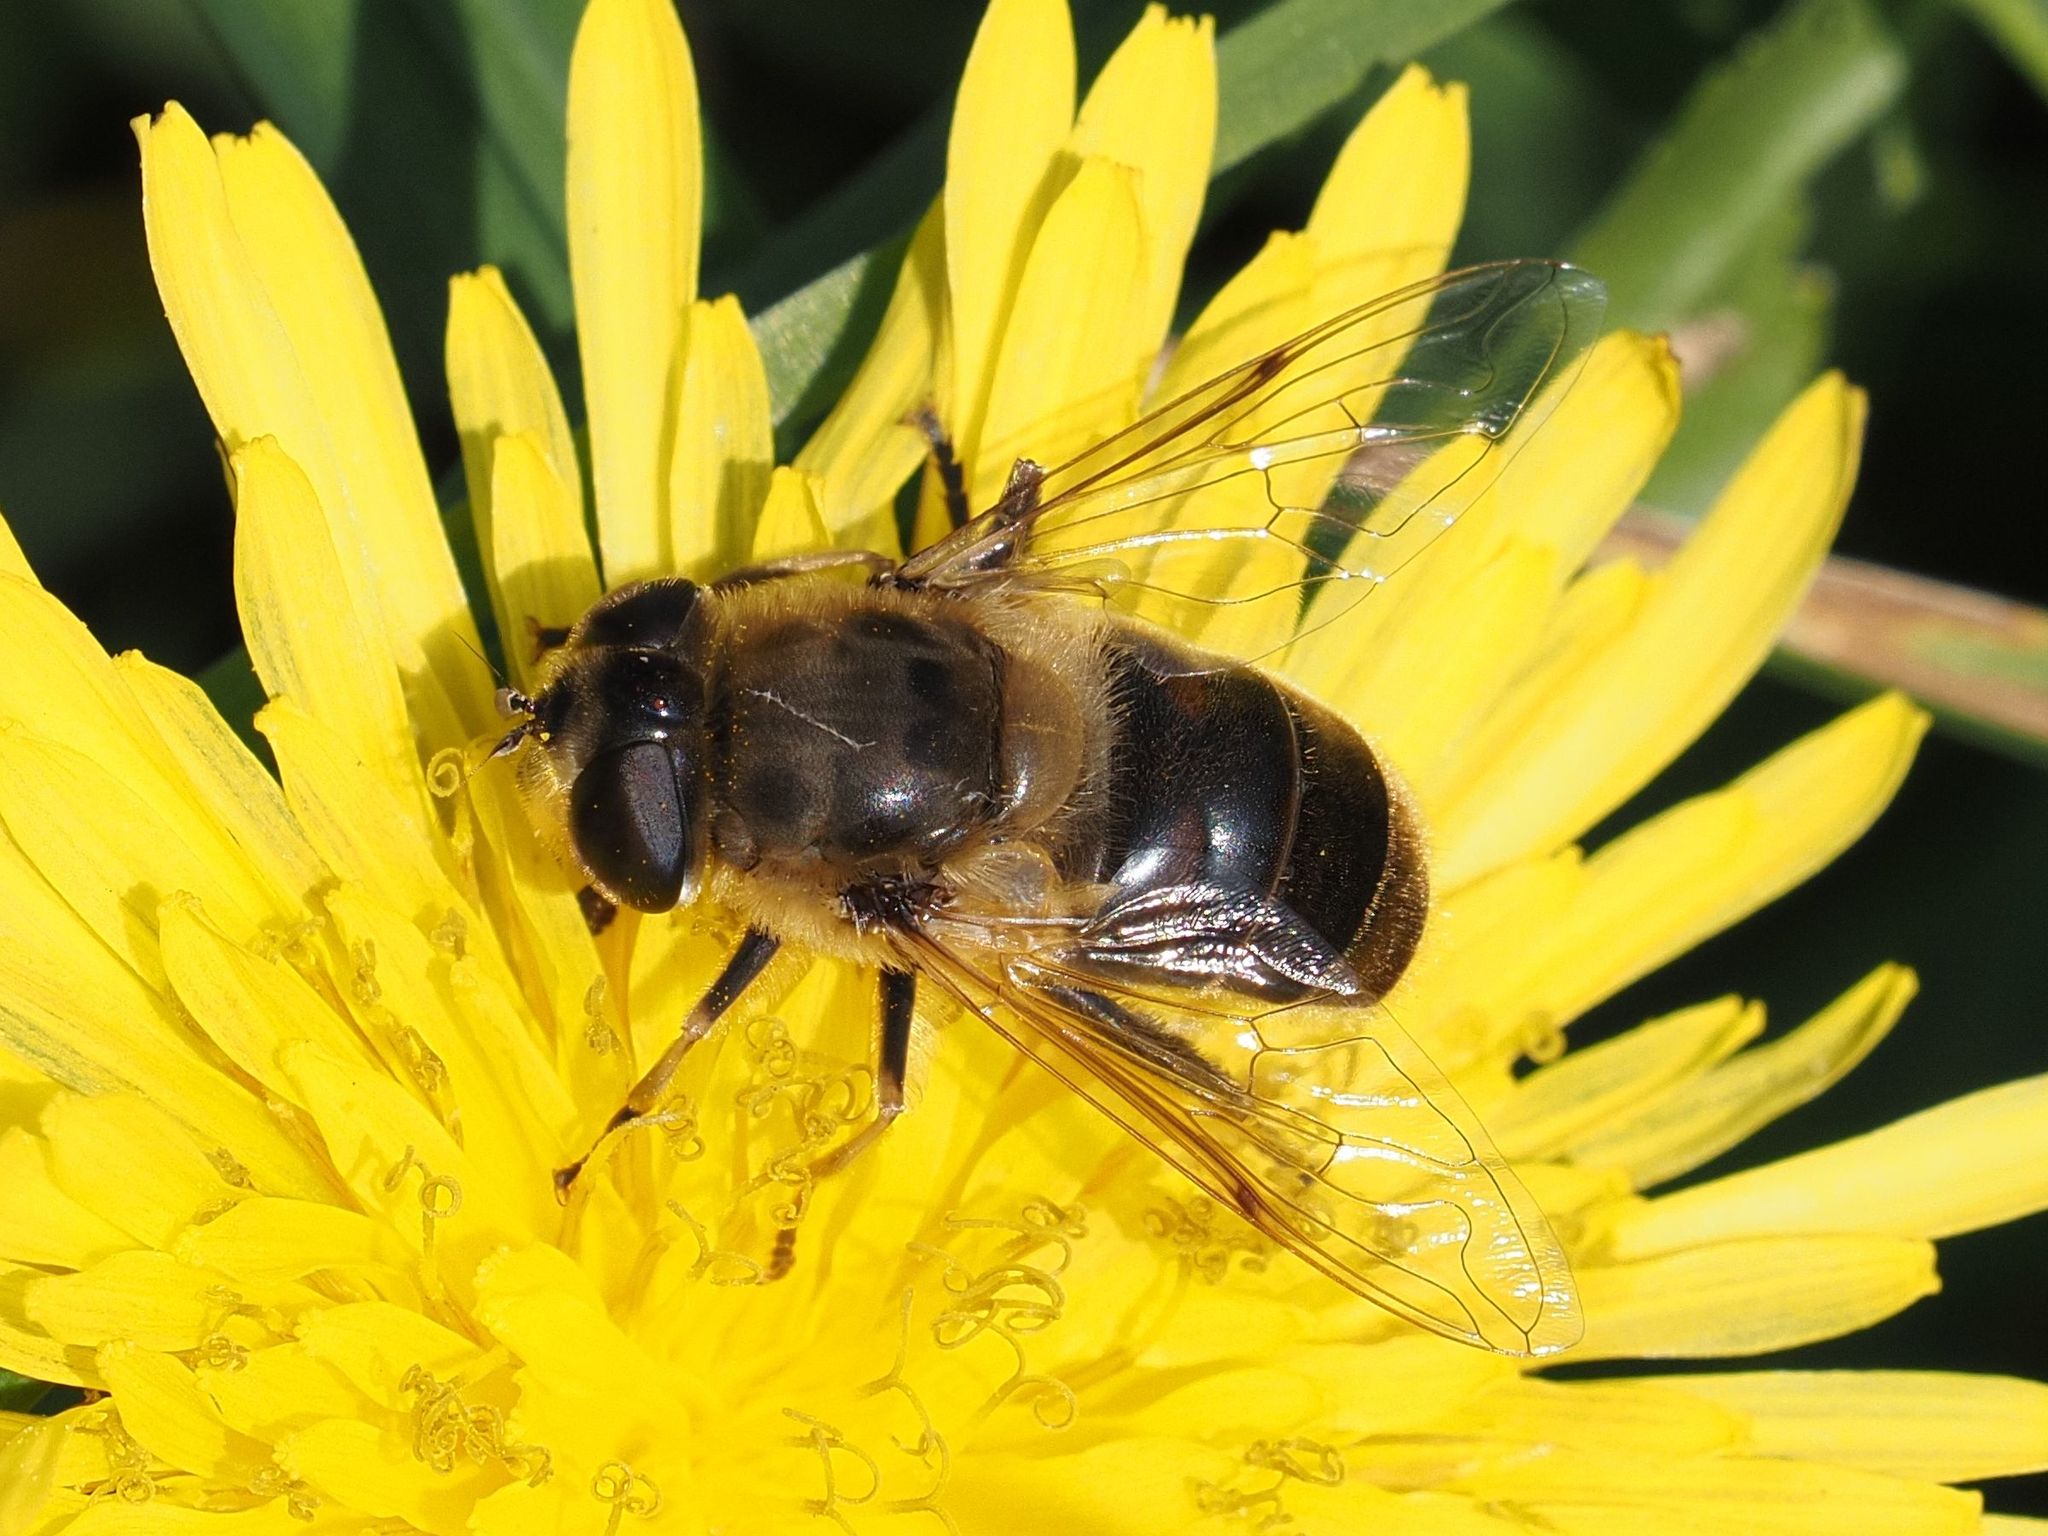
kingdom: Animalia
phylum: Arthropoda
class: Insecta
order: Diptera
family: Syrphidae
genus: Eristalis
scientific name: Eristalis tenax
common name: Drone fly
